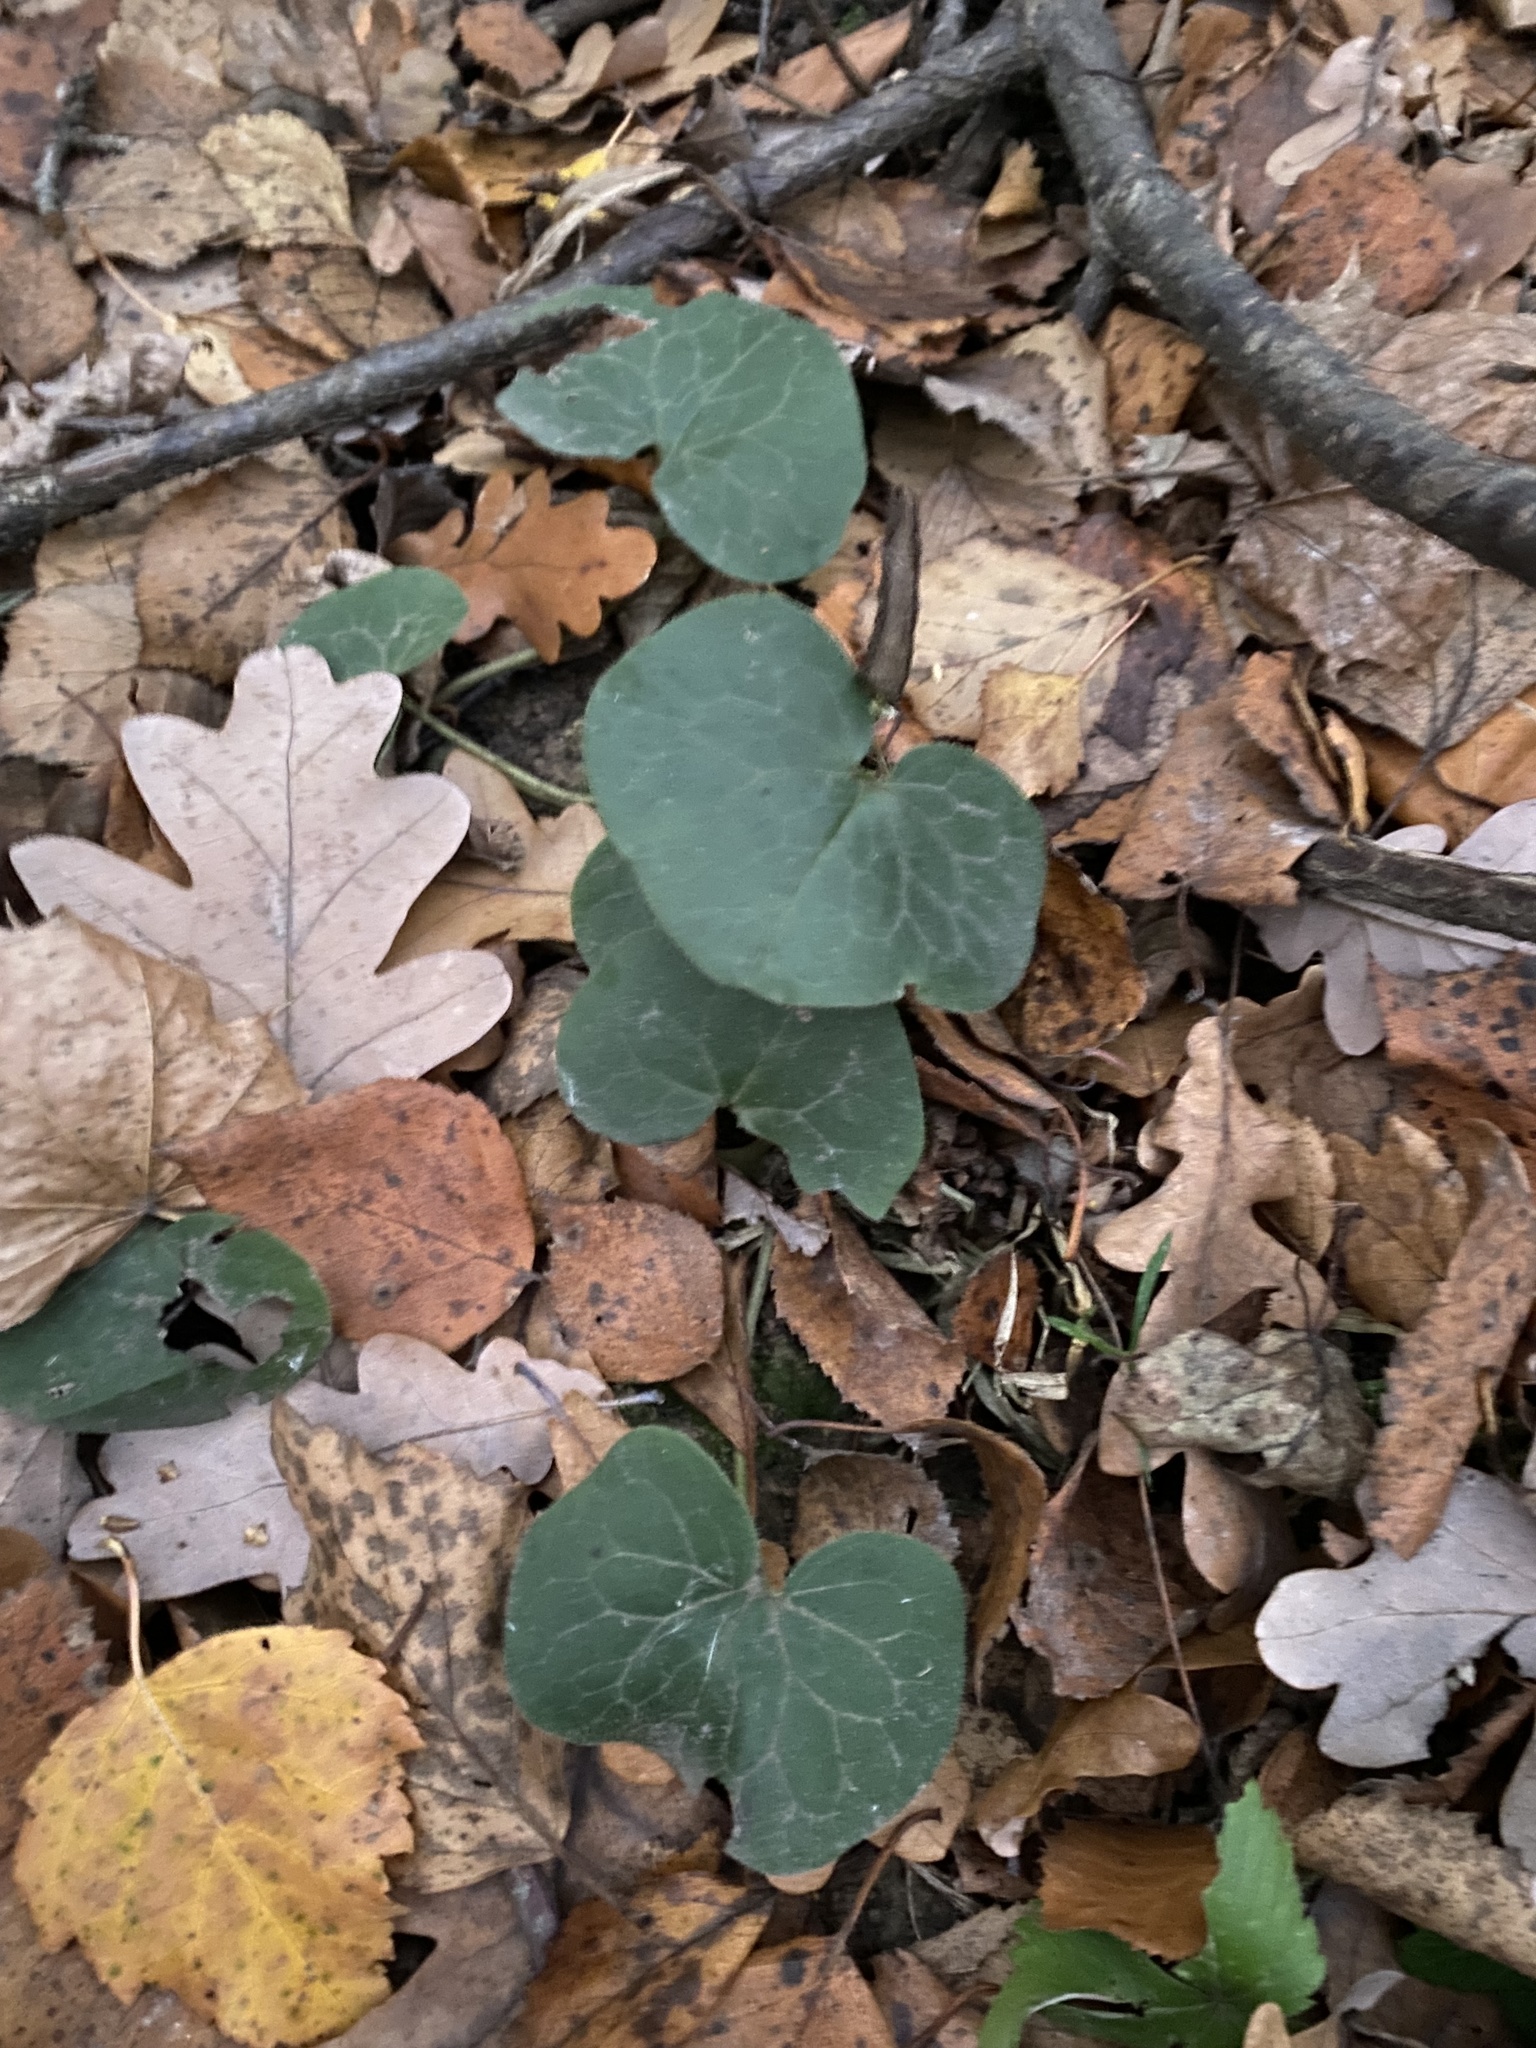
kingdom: Plantae
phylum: Tracheophyta
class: Magnoliopsida
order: Piperales
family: Aristolochiaceae
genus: Asarum
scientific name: Asarum europaeum
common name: Asarabacca
